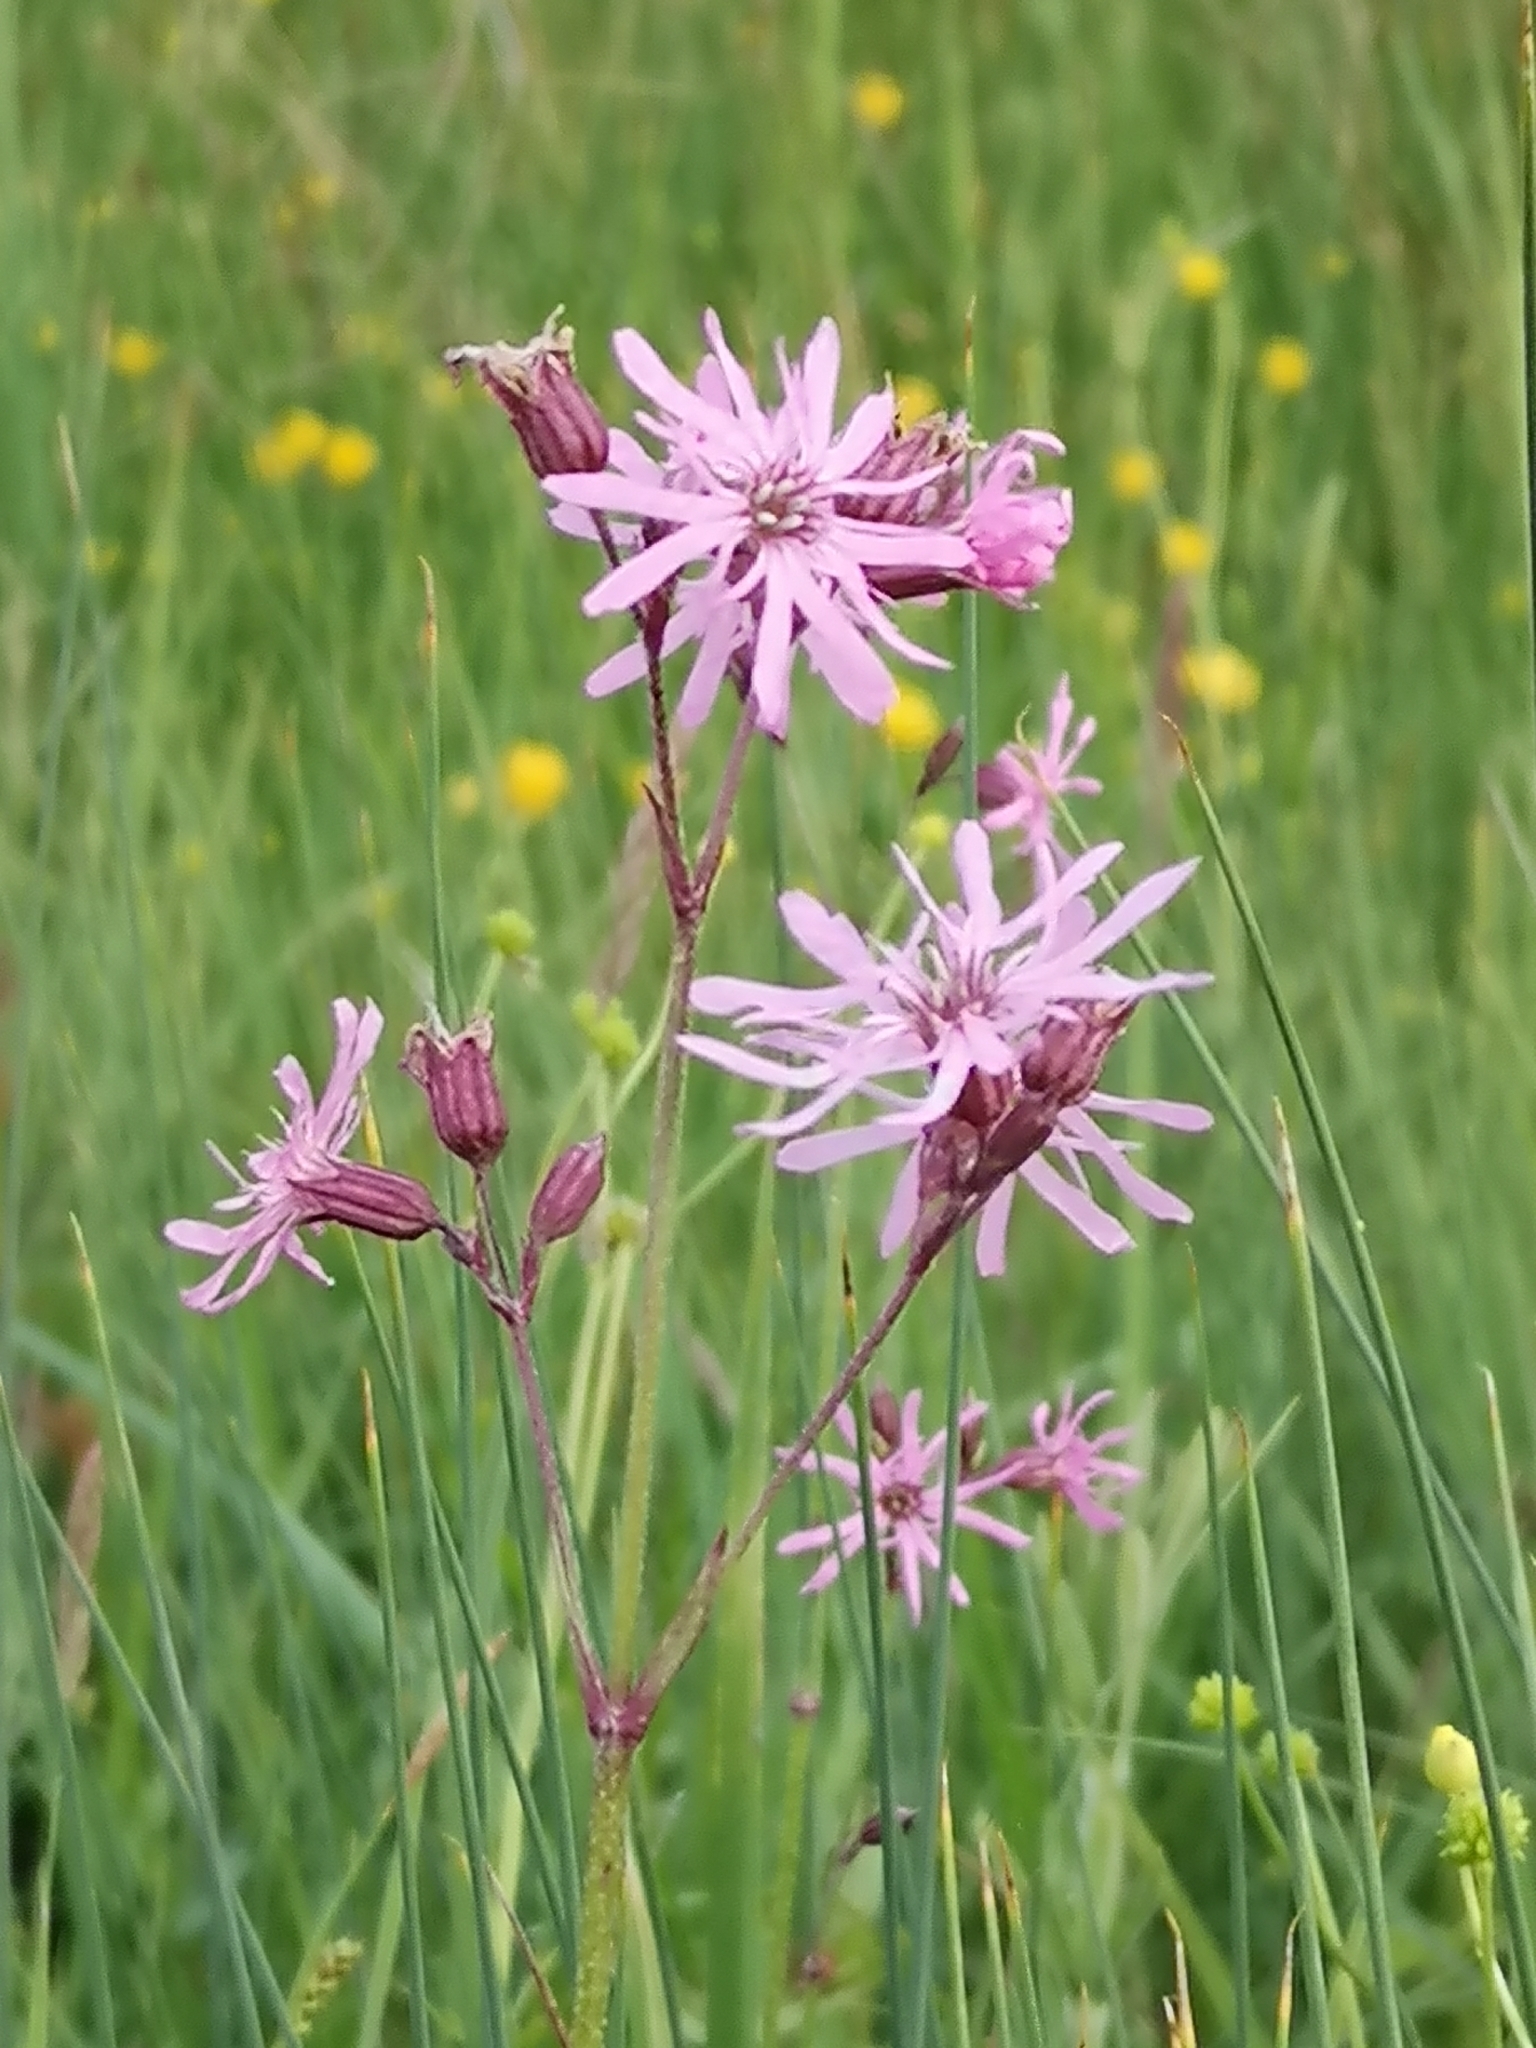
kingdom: Plantae
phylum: Tracheophyta
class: Magnoliopsida
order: Caryophyllales
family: Caryophyllaceae
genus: Silene
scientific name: Silene flos-cuculi
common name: Ragged-robin
